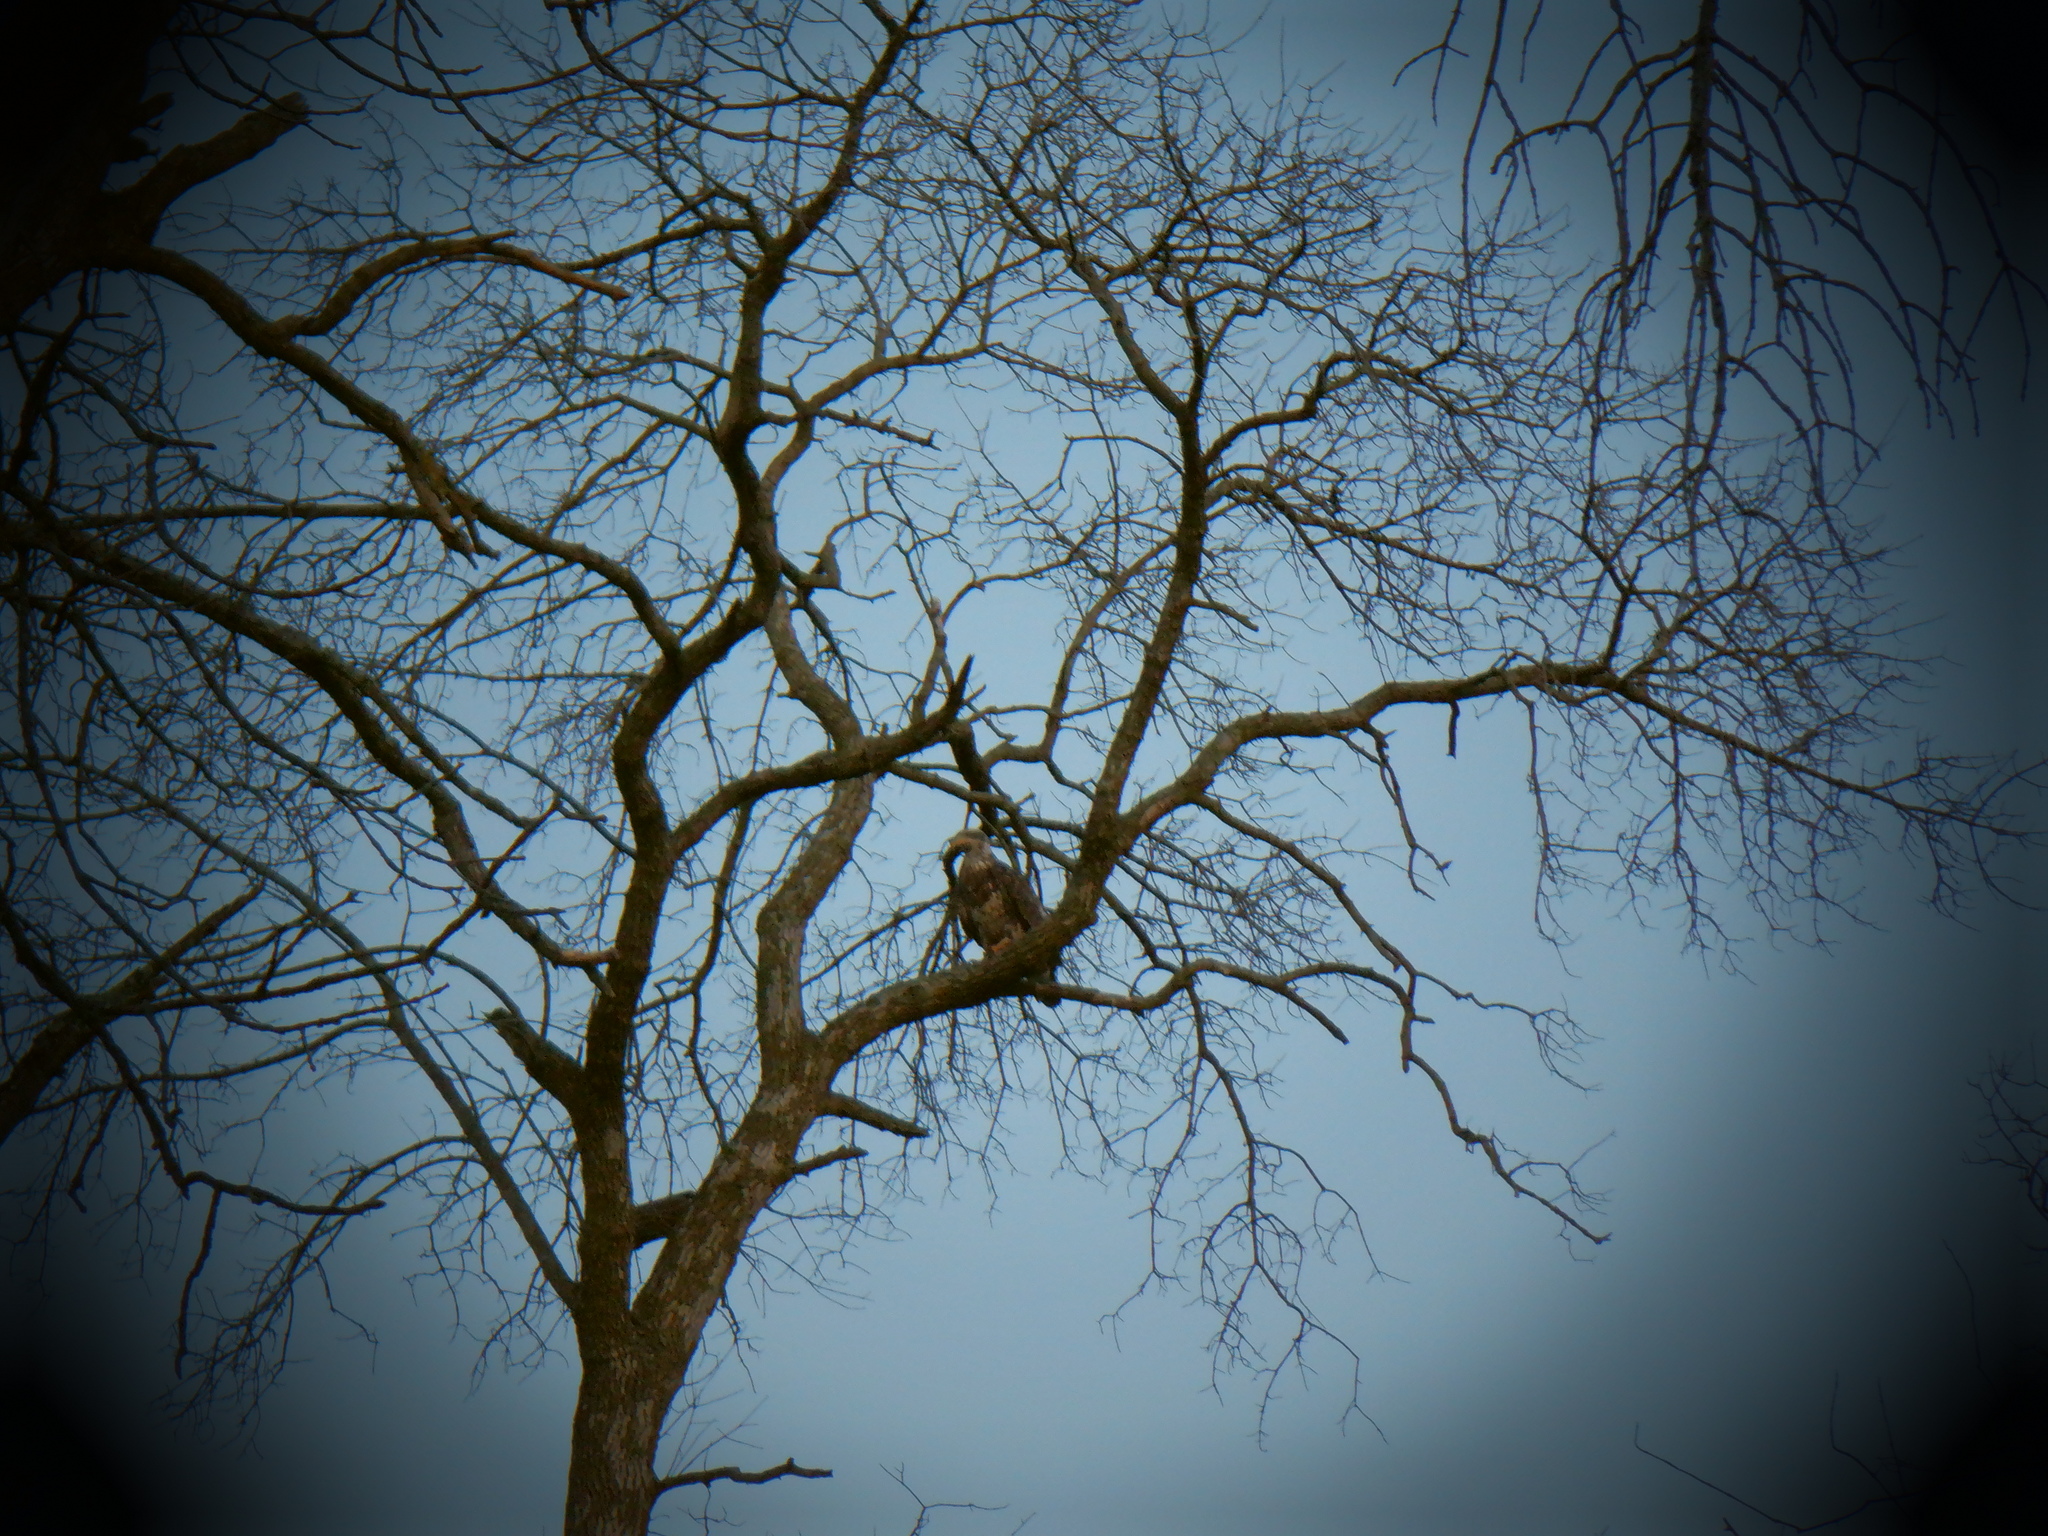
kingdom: Animalia
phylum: Chordata
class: Aves
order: Accipitriformes
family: Accipitridae
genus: Haliaeetus
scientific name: Haliaeetus leucocephalus
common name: Bald eagle
